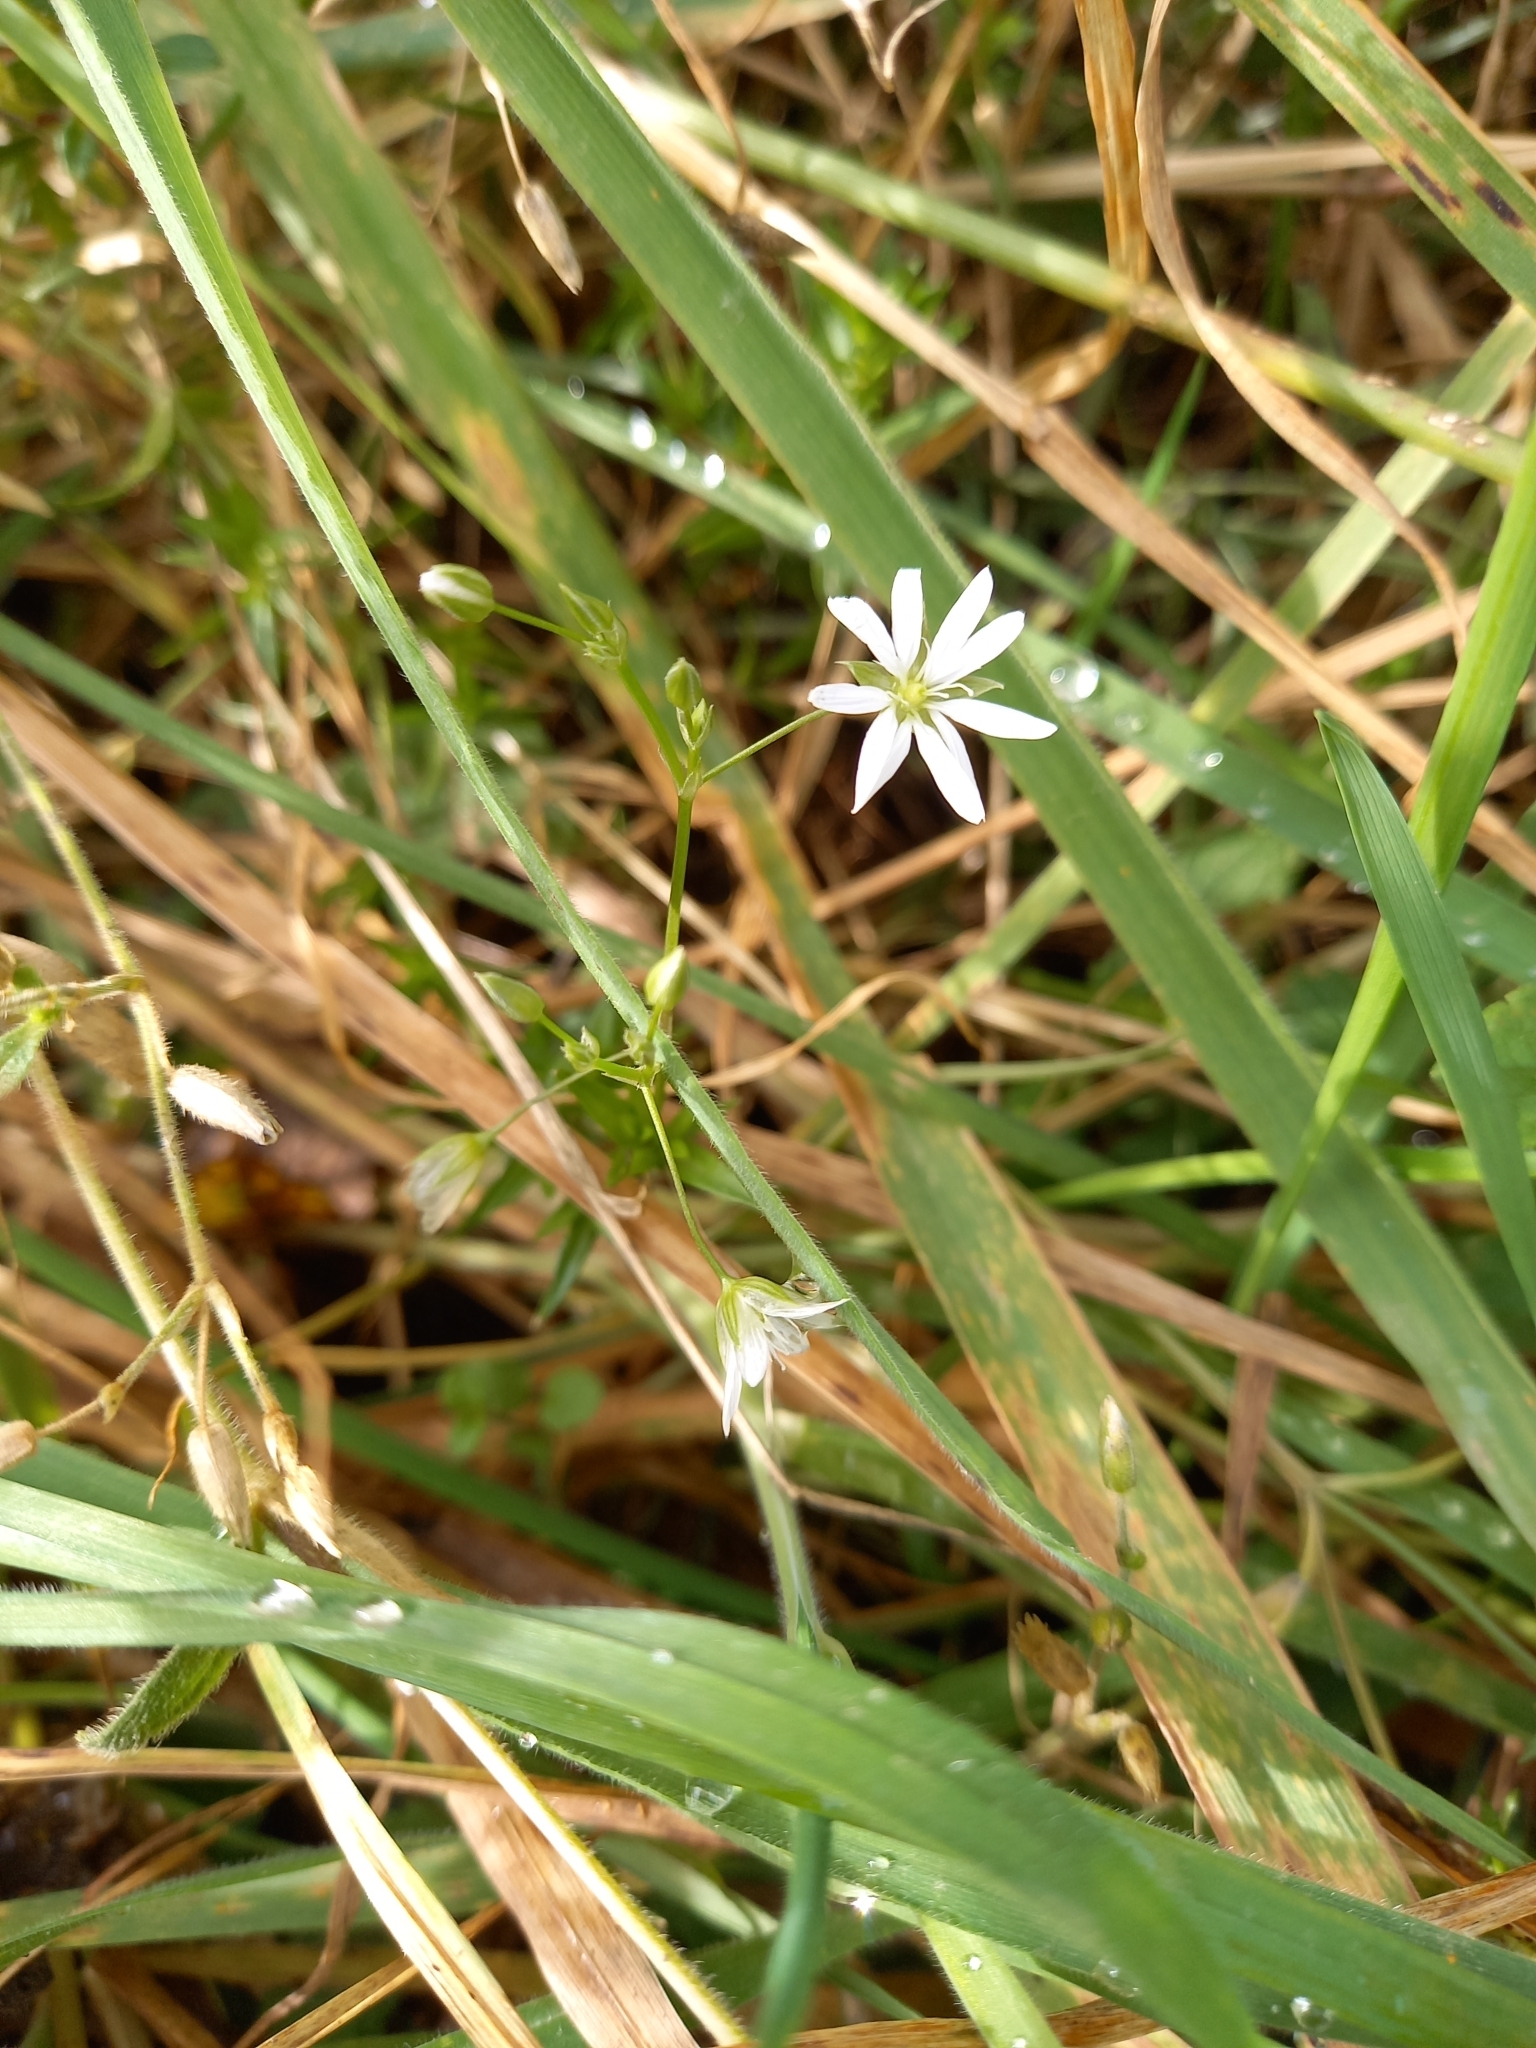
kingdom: Plantae
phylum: Tracheophyta
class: Magnoliopsida
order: Caryophyllales
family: Caryophyllaceae
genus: Stellaria
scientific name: Stellaria graminea
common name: Grass-like starwort
